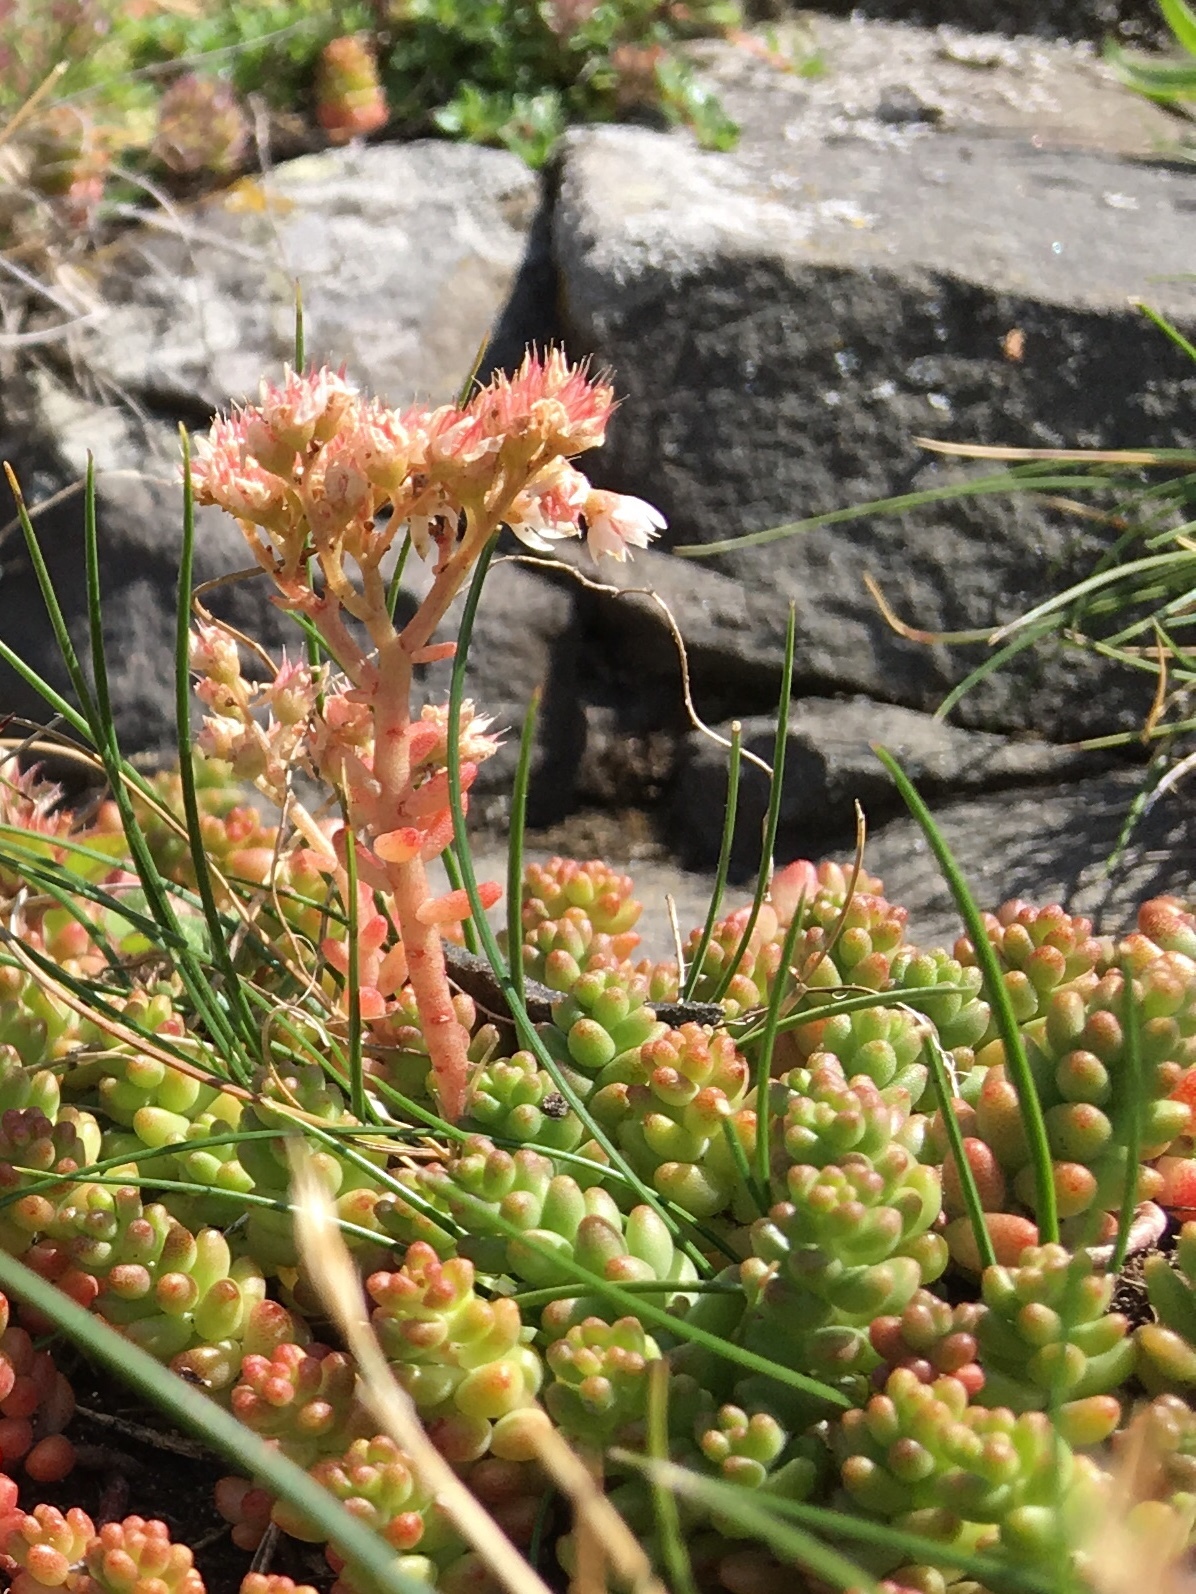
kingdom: Plantae
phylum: Tracheophyta
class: Magnoliopsida
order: Saxifragales
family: Crassulaceae
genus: Sedum
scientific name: Sedum album
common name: White stonecrop
